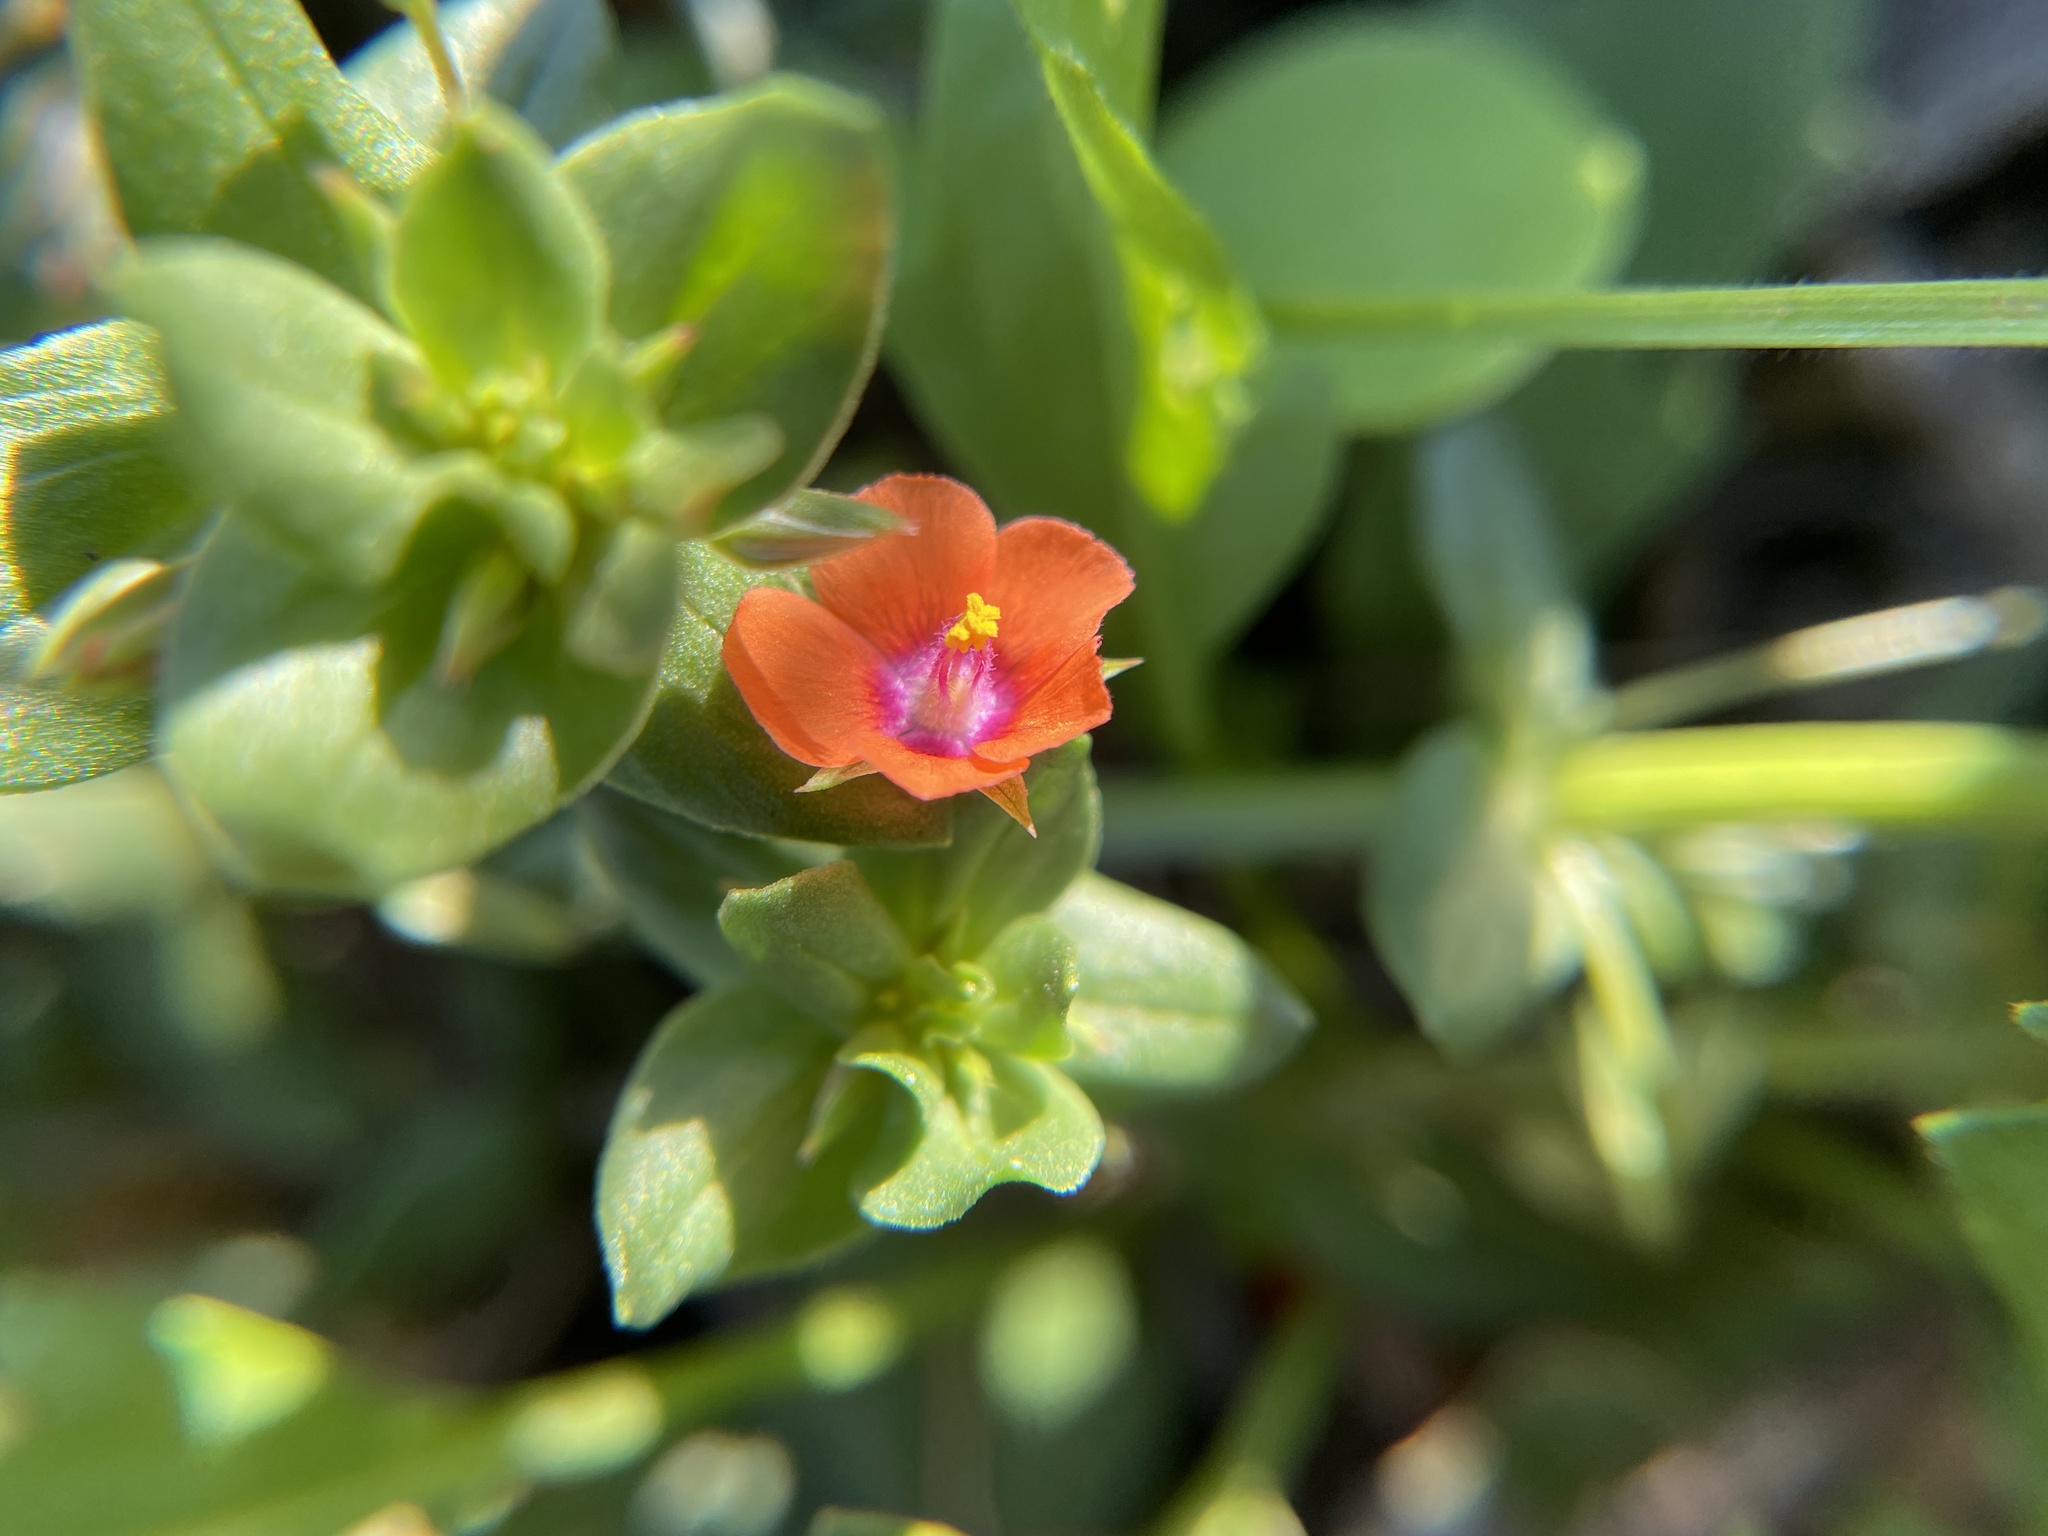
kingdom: Plantae
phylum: Tracheophyta
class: Magnoliopsida
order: Ericales
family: Primulaceae
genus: Lysimachia
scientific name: Lysimachia arvensis
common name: Scarlet pimpernel
